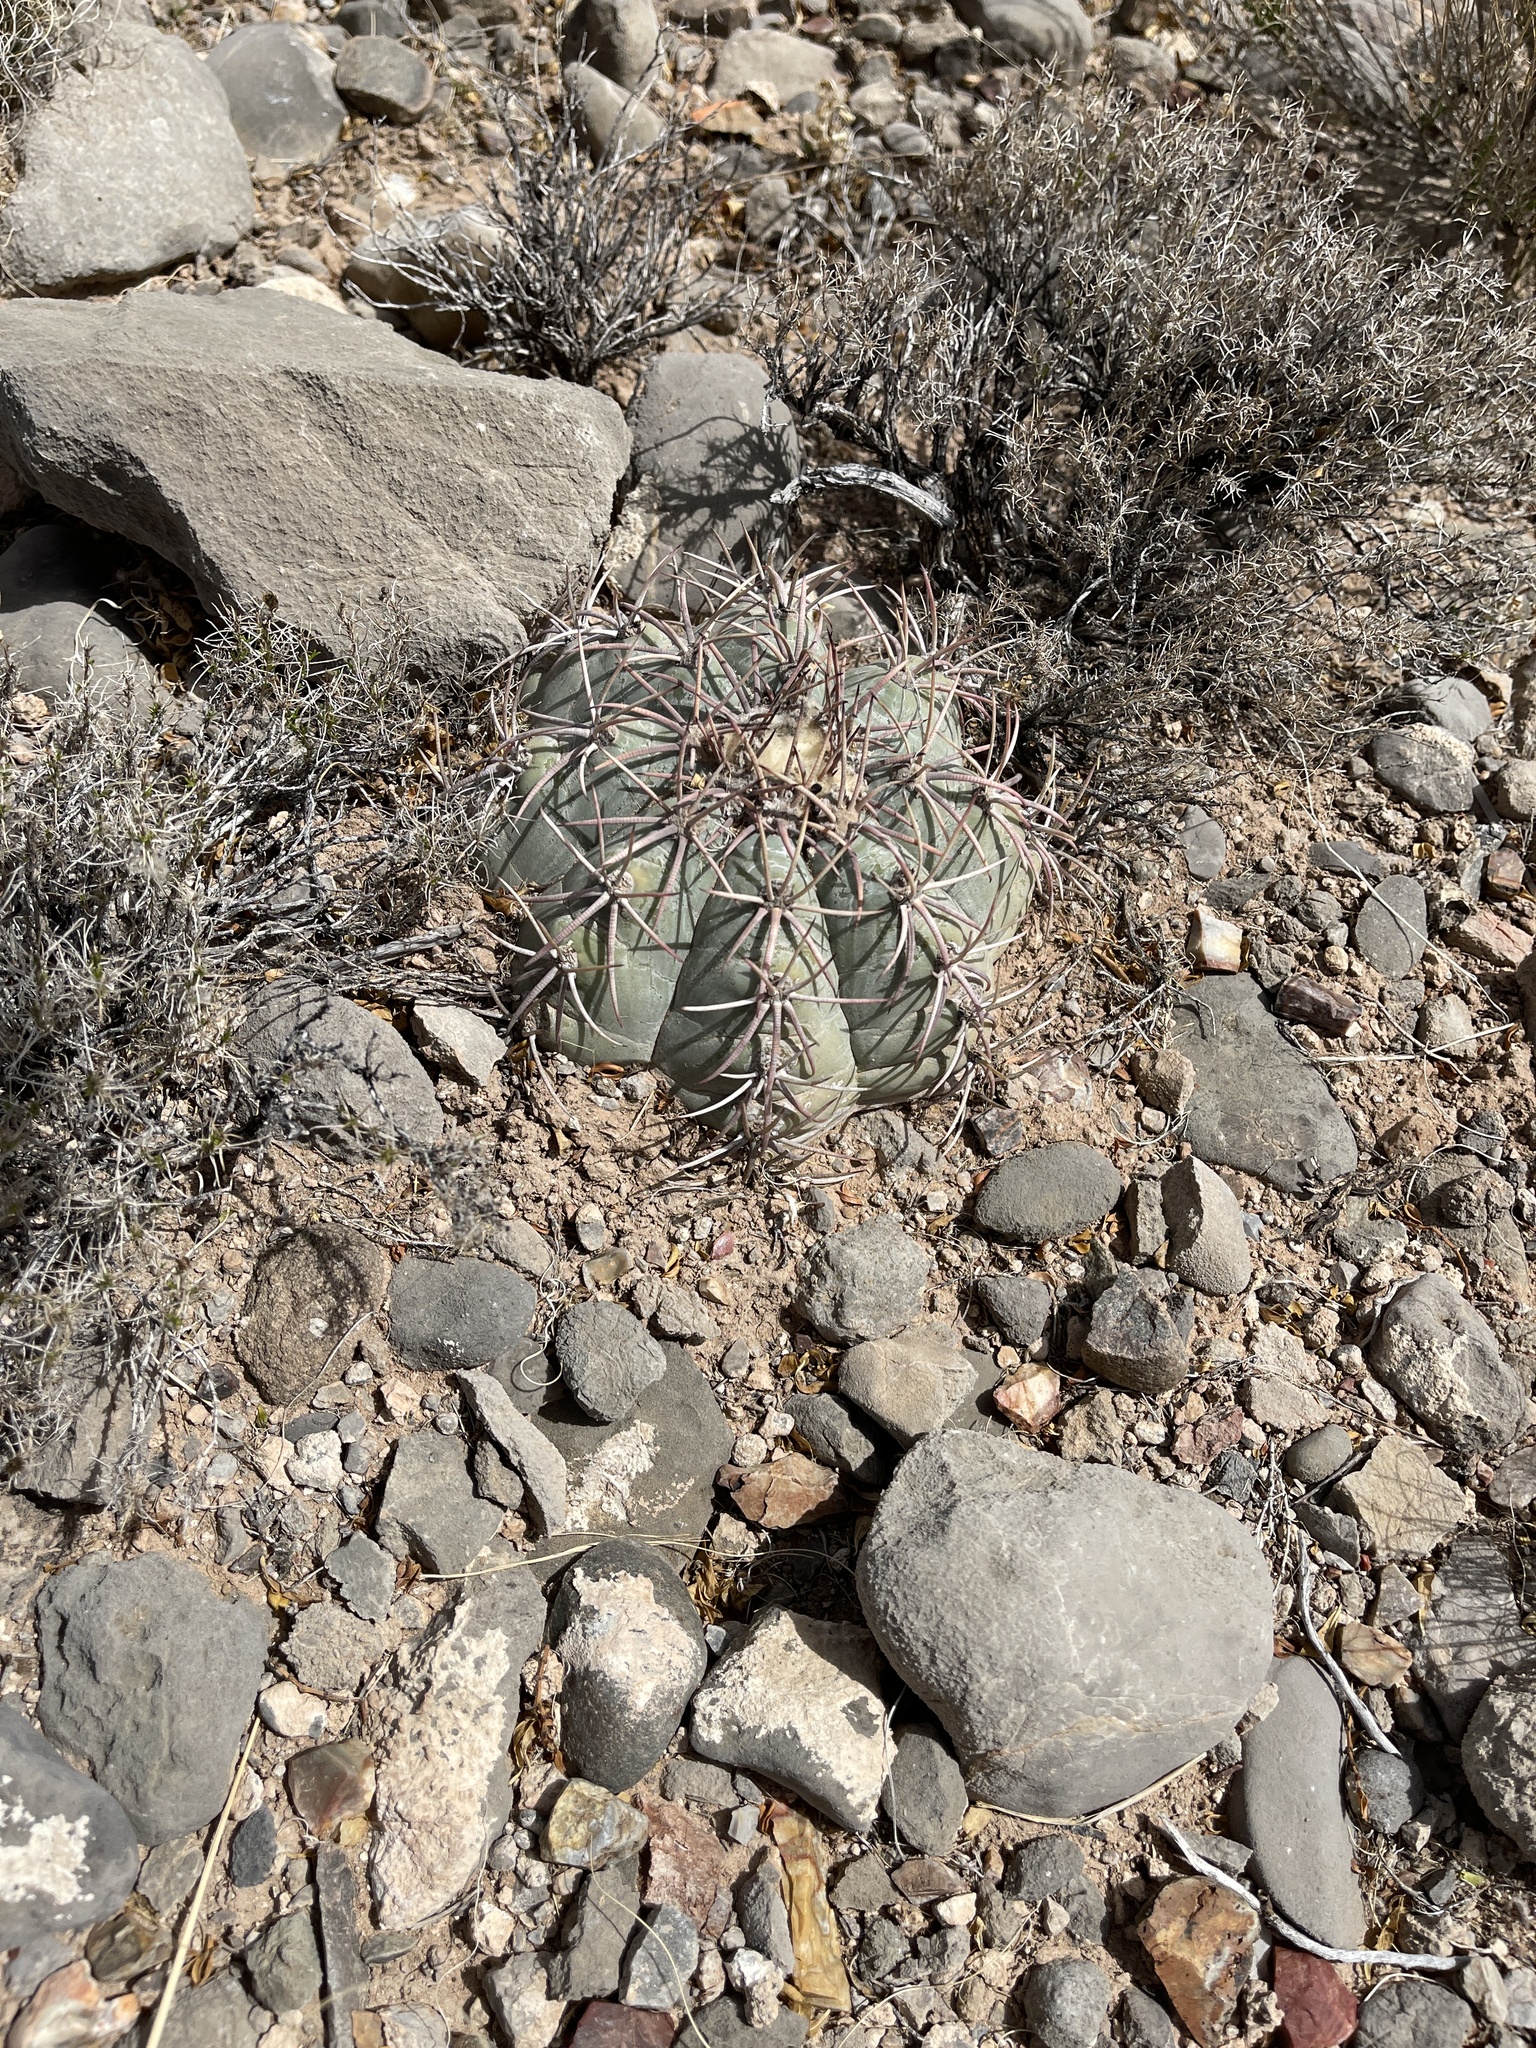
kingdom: Plantae
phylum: Tracheophyta
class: Magnoliopsida
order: Caryophyllales
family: Cactaceae
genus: Echinocactus
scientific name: Echinocactus horizonthalonius
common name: Devilshead
